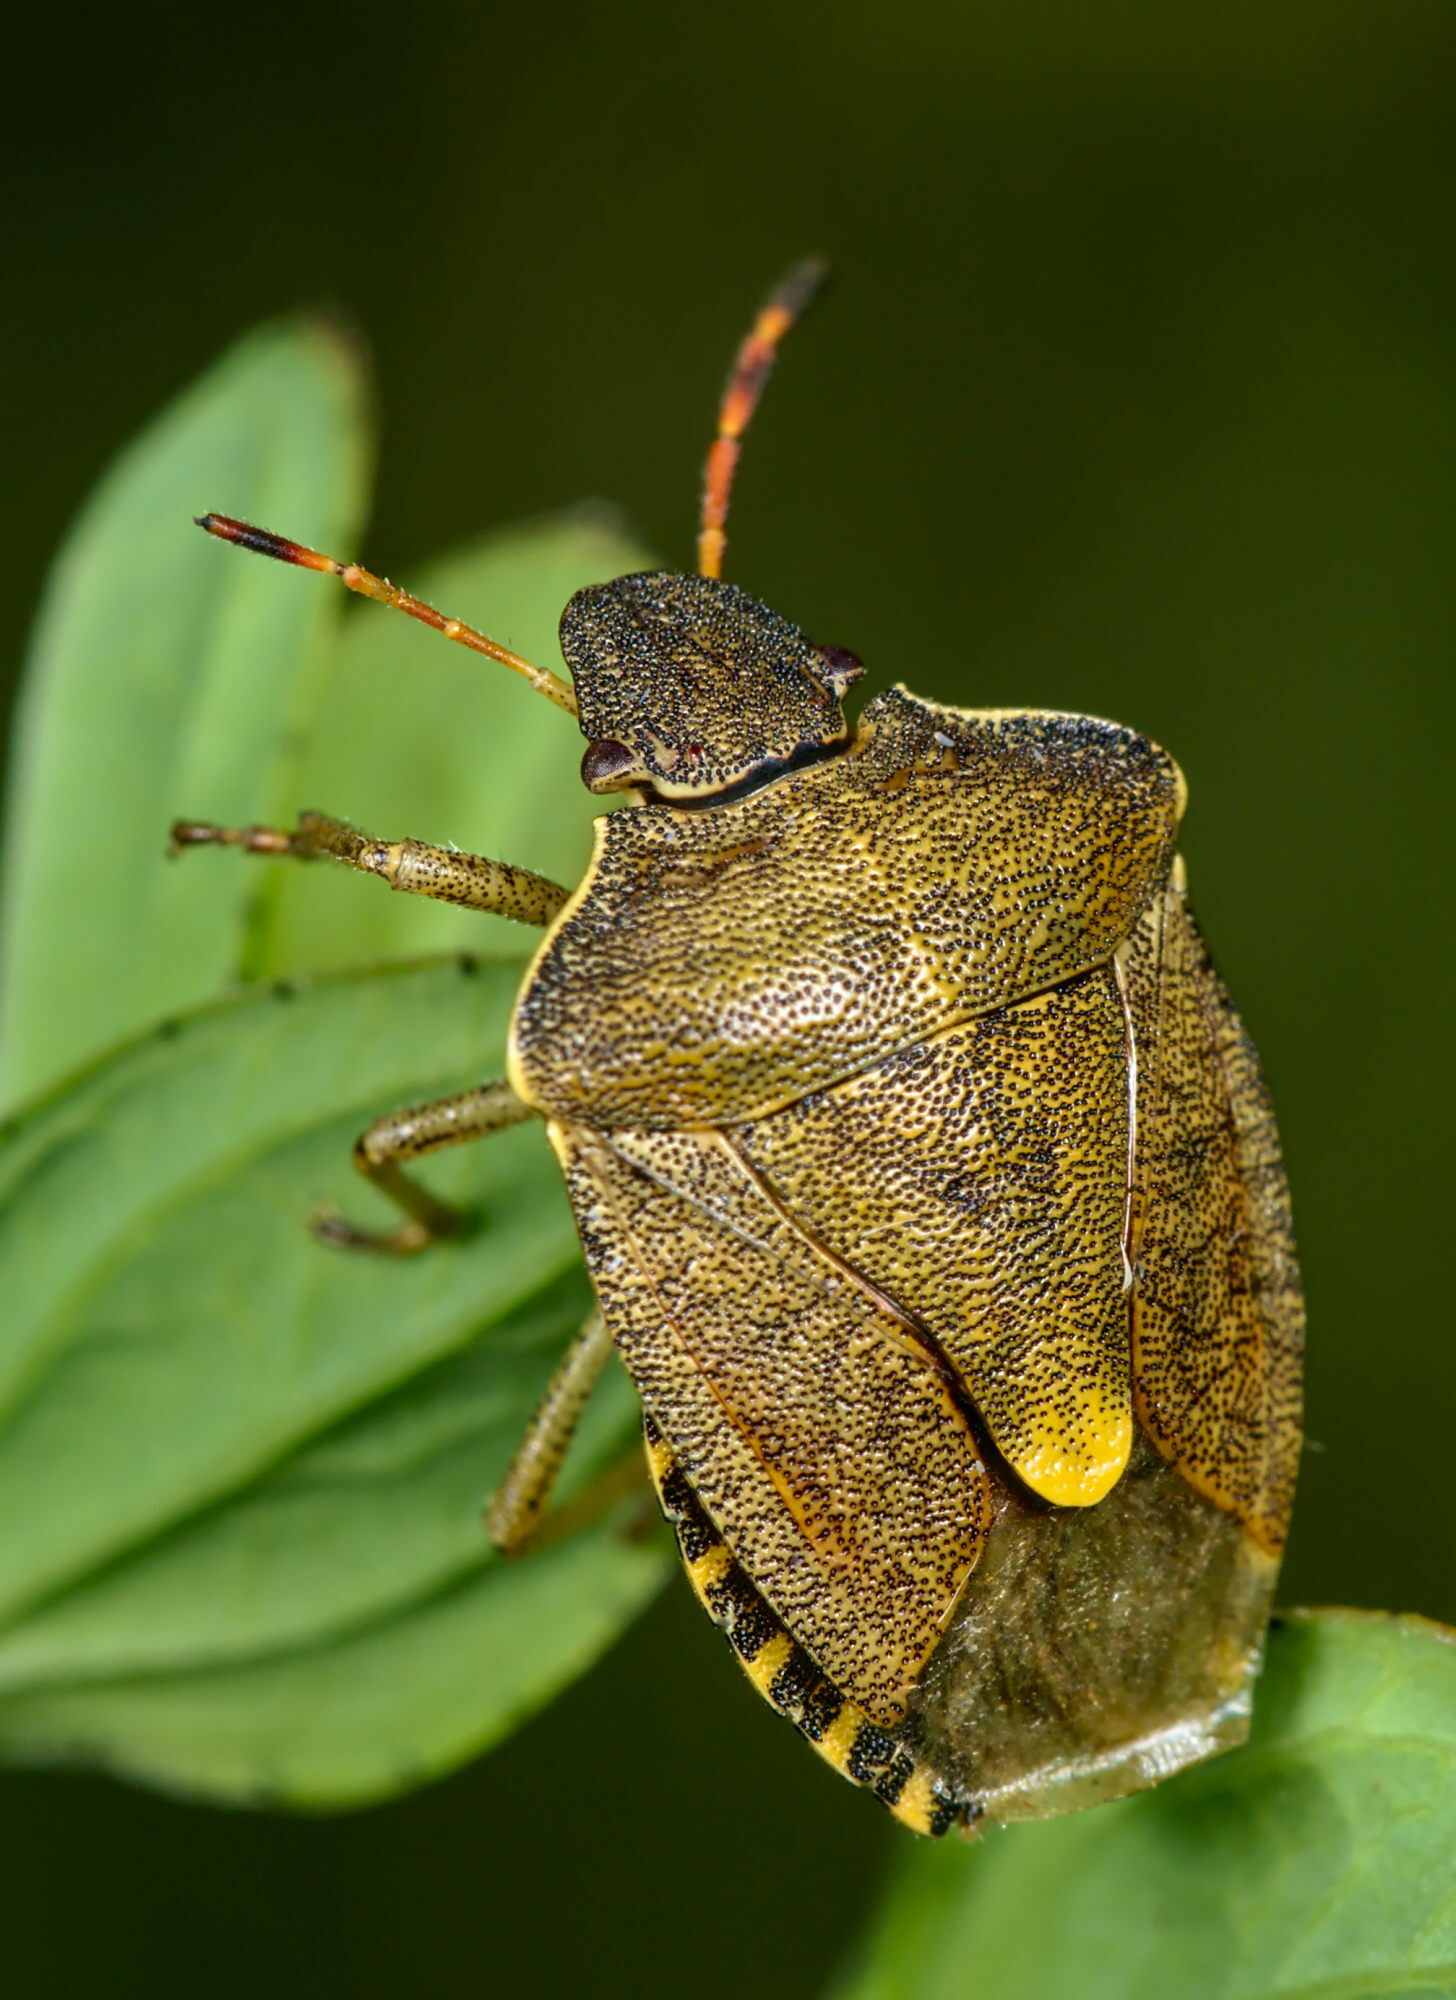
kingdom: Animalia
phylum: Arthropoda
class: Insecta
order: Hemiptera
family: Pentatomidae
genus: Holcostethus
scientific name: Holcostethus strictus
